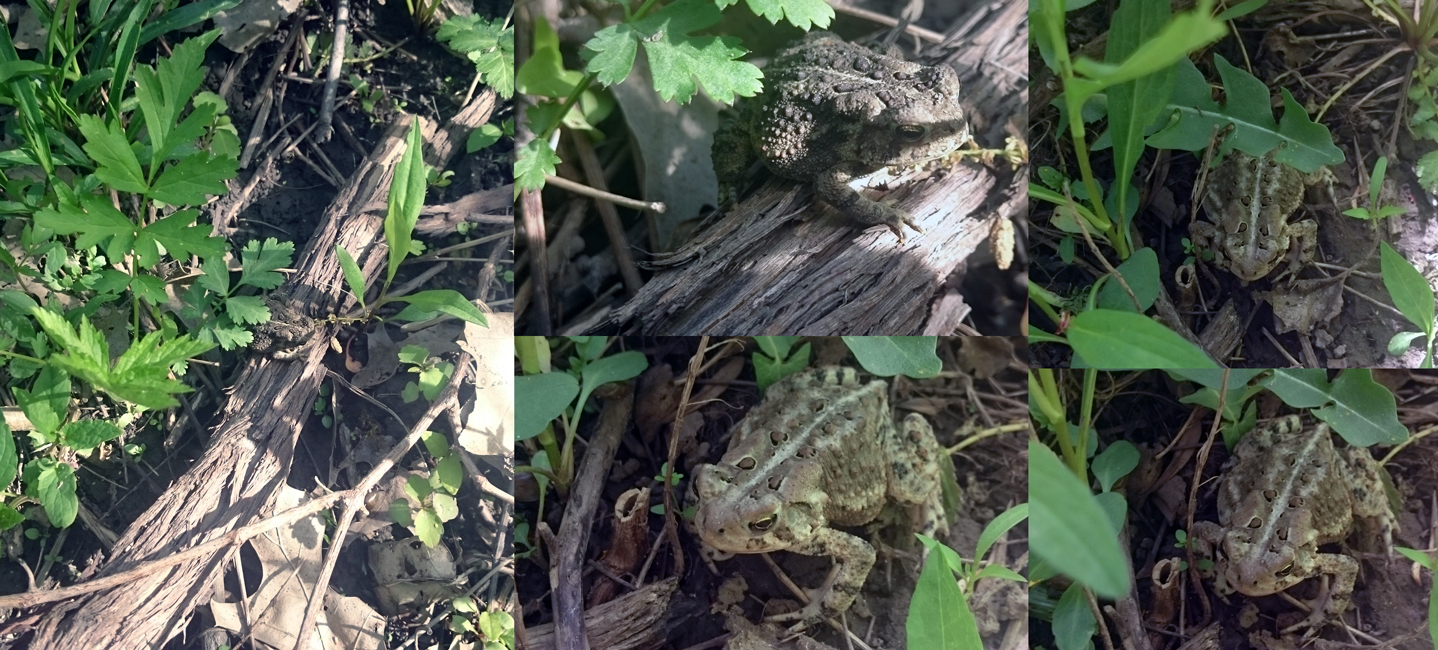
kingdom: Animalia
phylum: Chordata
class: Amphibia
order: Anura
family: Bufonidae
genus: Anaxyrus
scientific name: Anaxyrus americanus
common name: American toad
